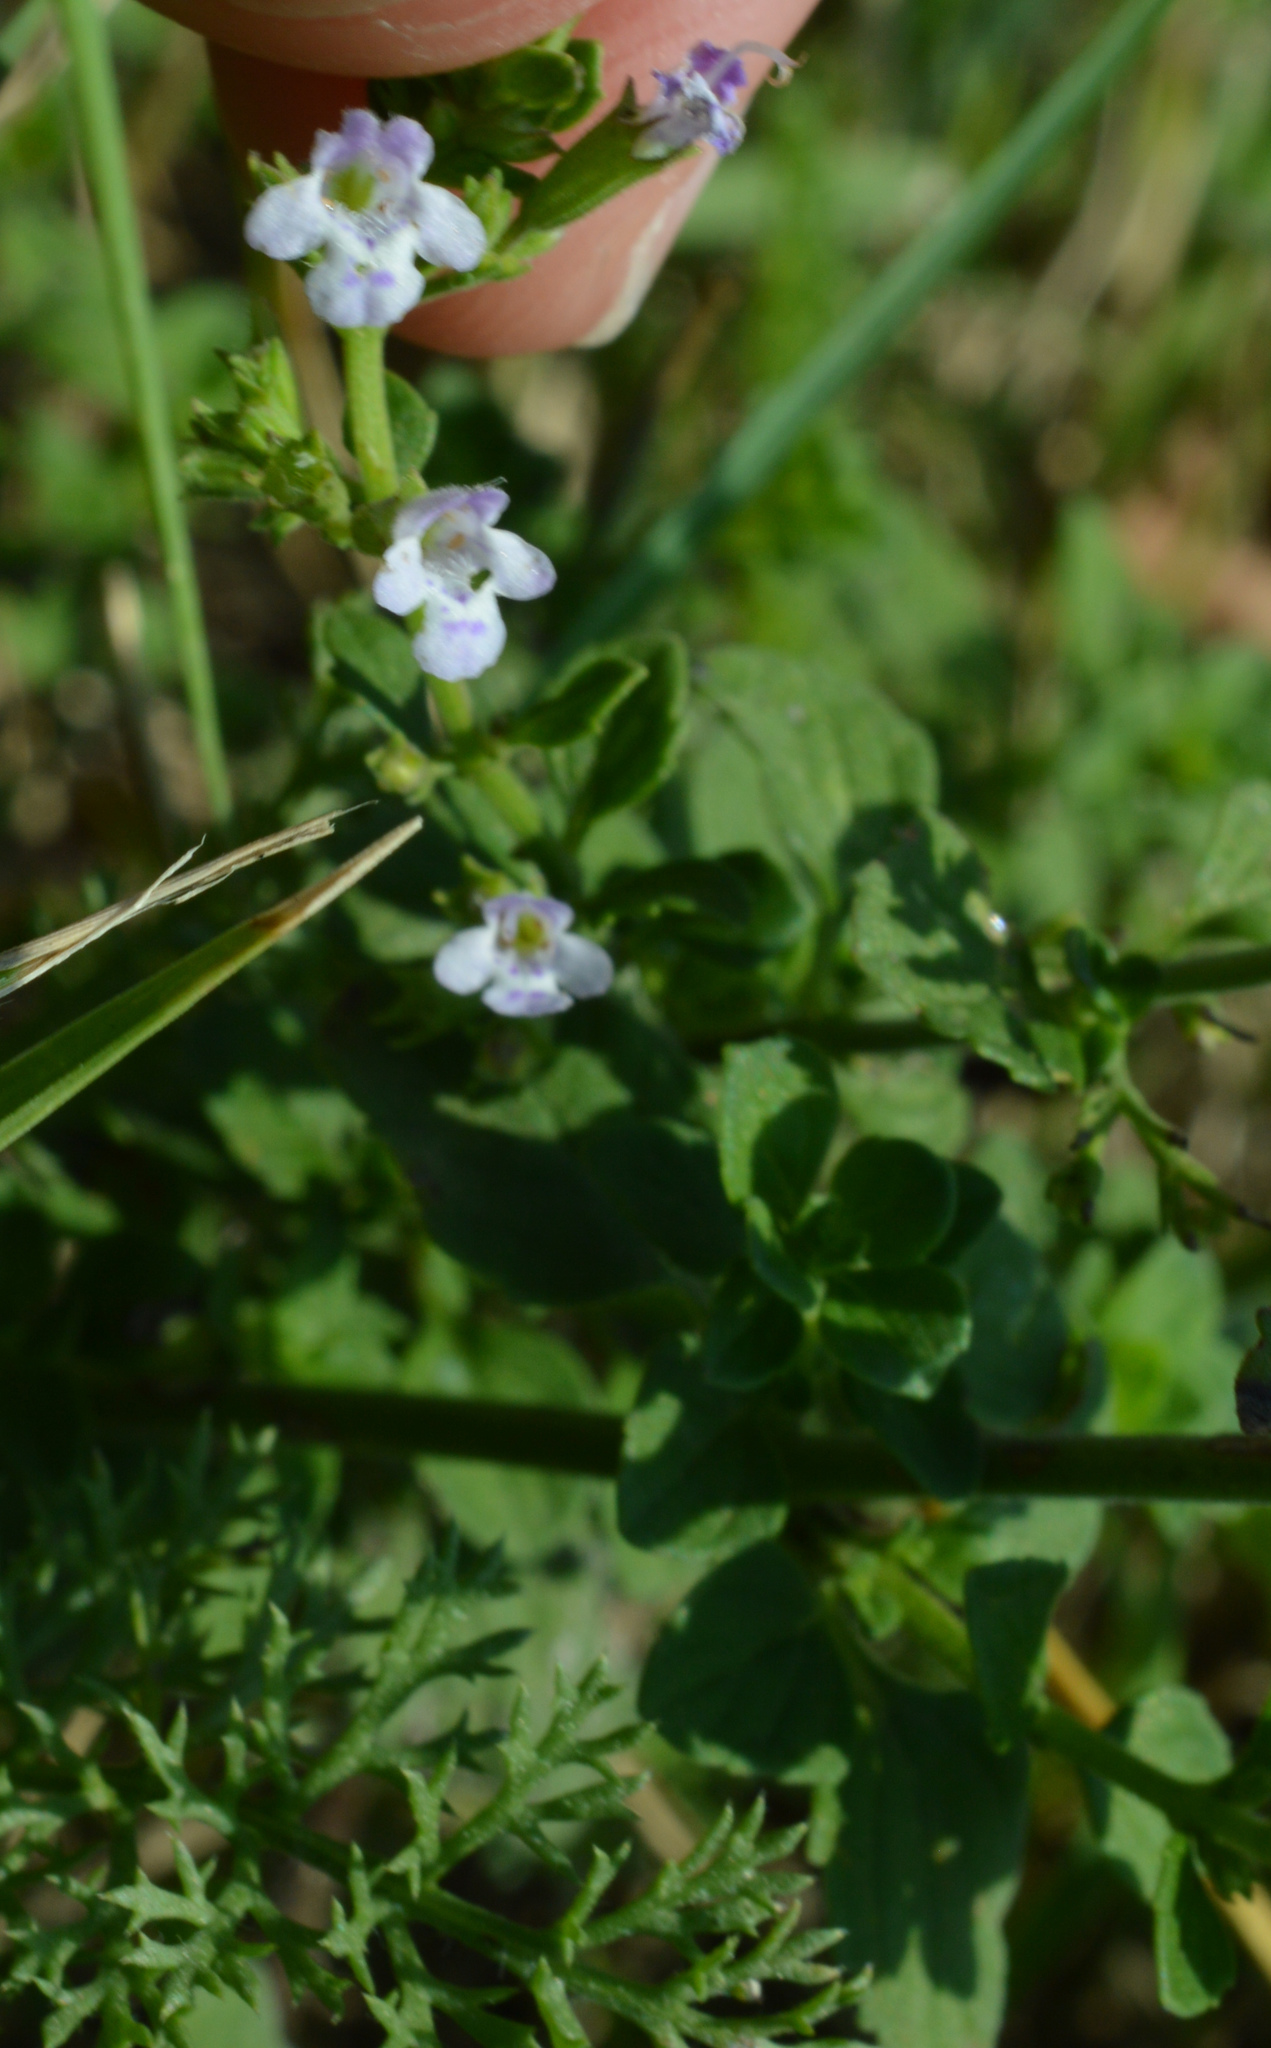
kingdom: Plantae
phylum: Tracheophyta
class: Magnoliopsida
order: Lamiales
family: Lamiaceae
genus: Clinopodium
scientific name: Clinopodium nepeta
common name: Lesser calamint
